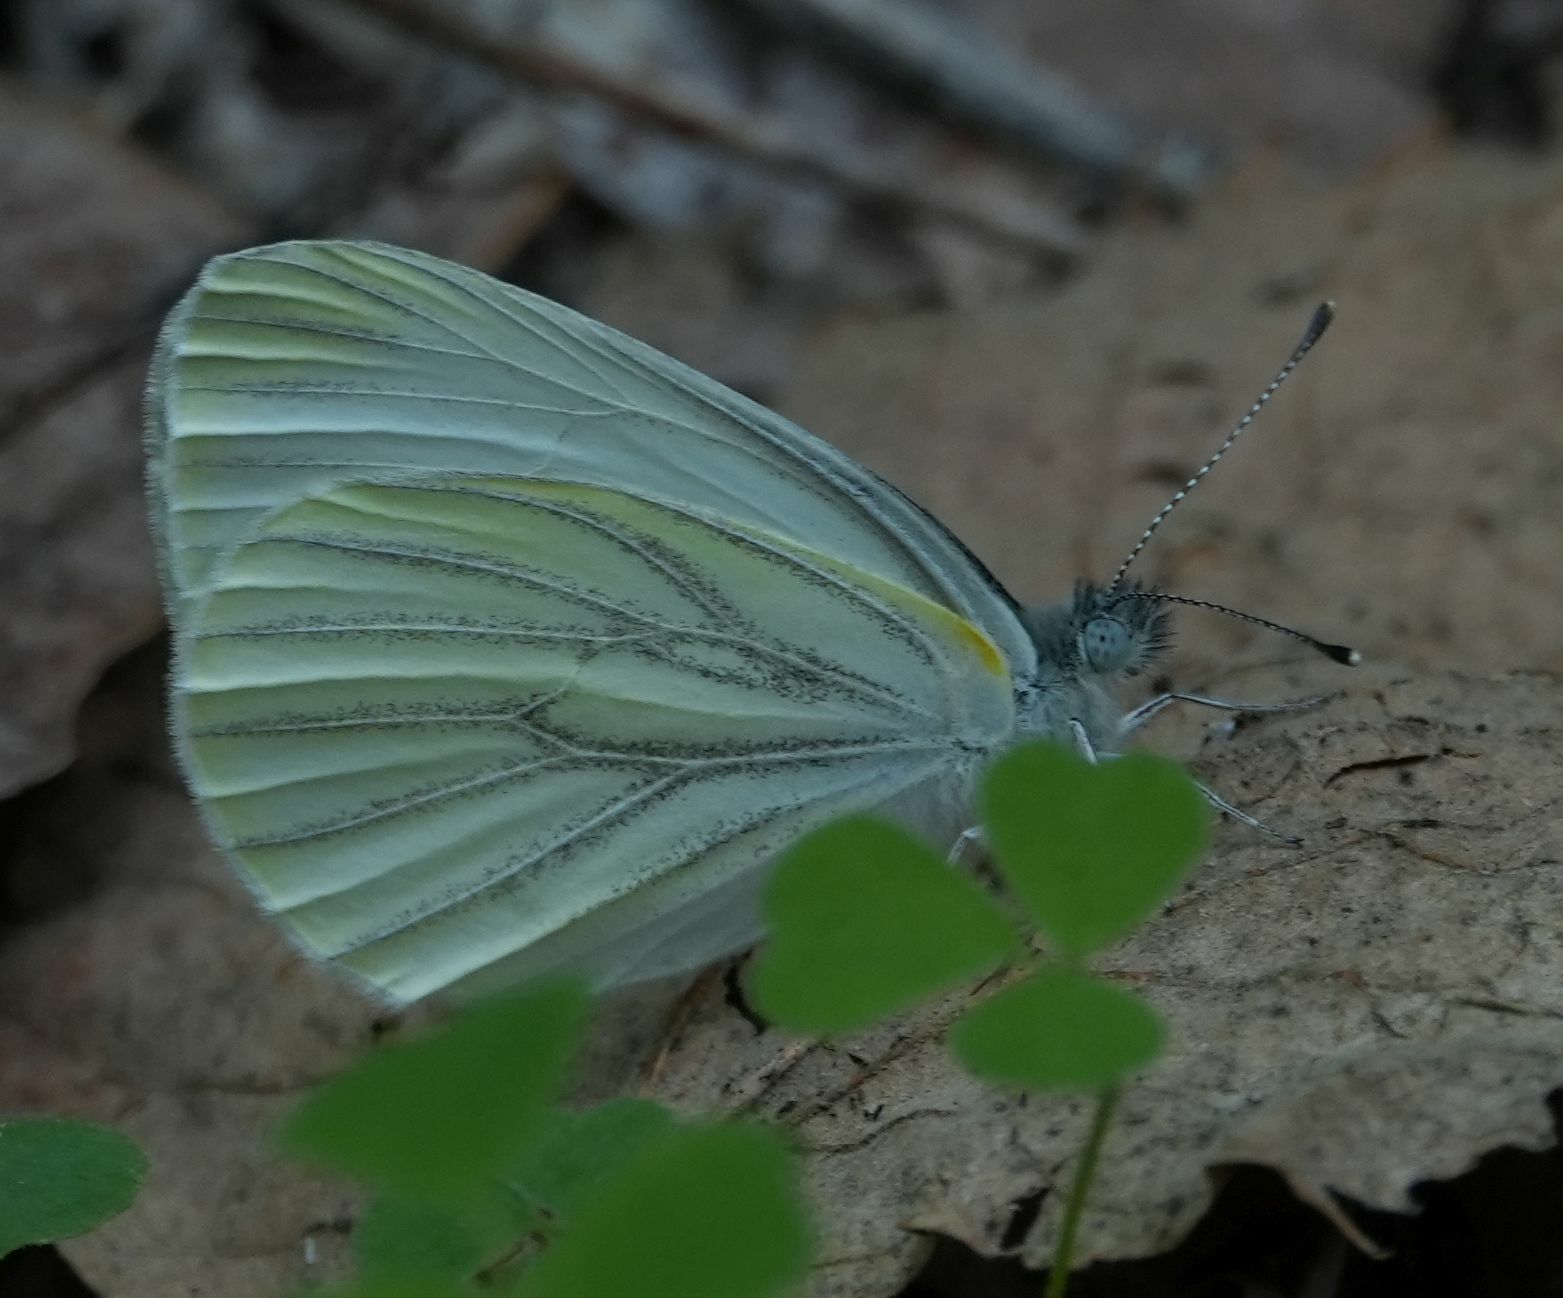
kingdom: Animalia
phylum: Arthropoda
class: Insecta
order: Lepidoptera
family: Pieridae
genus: Pieris
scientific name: Pieris oleracea
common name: Mustard white
